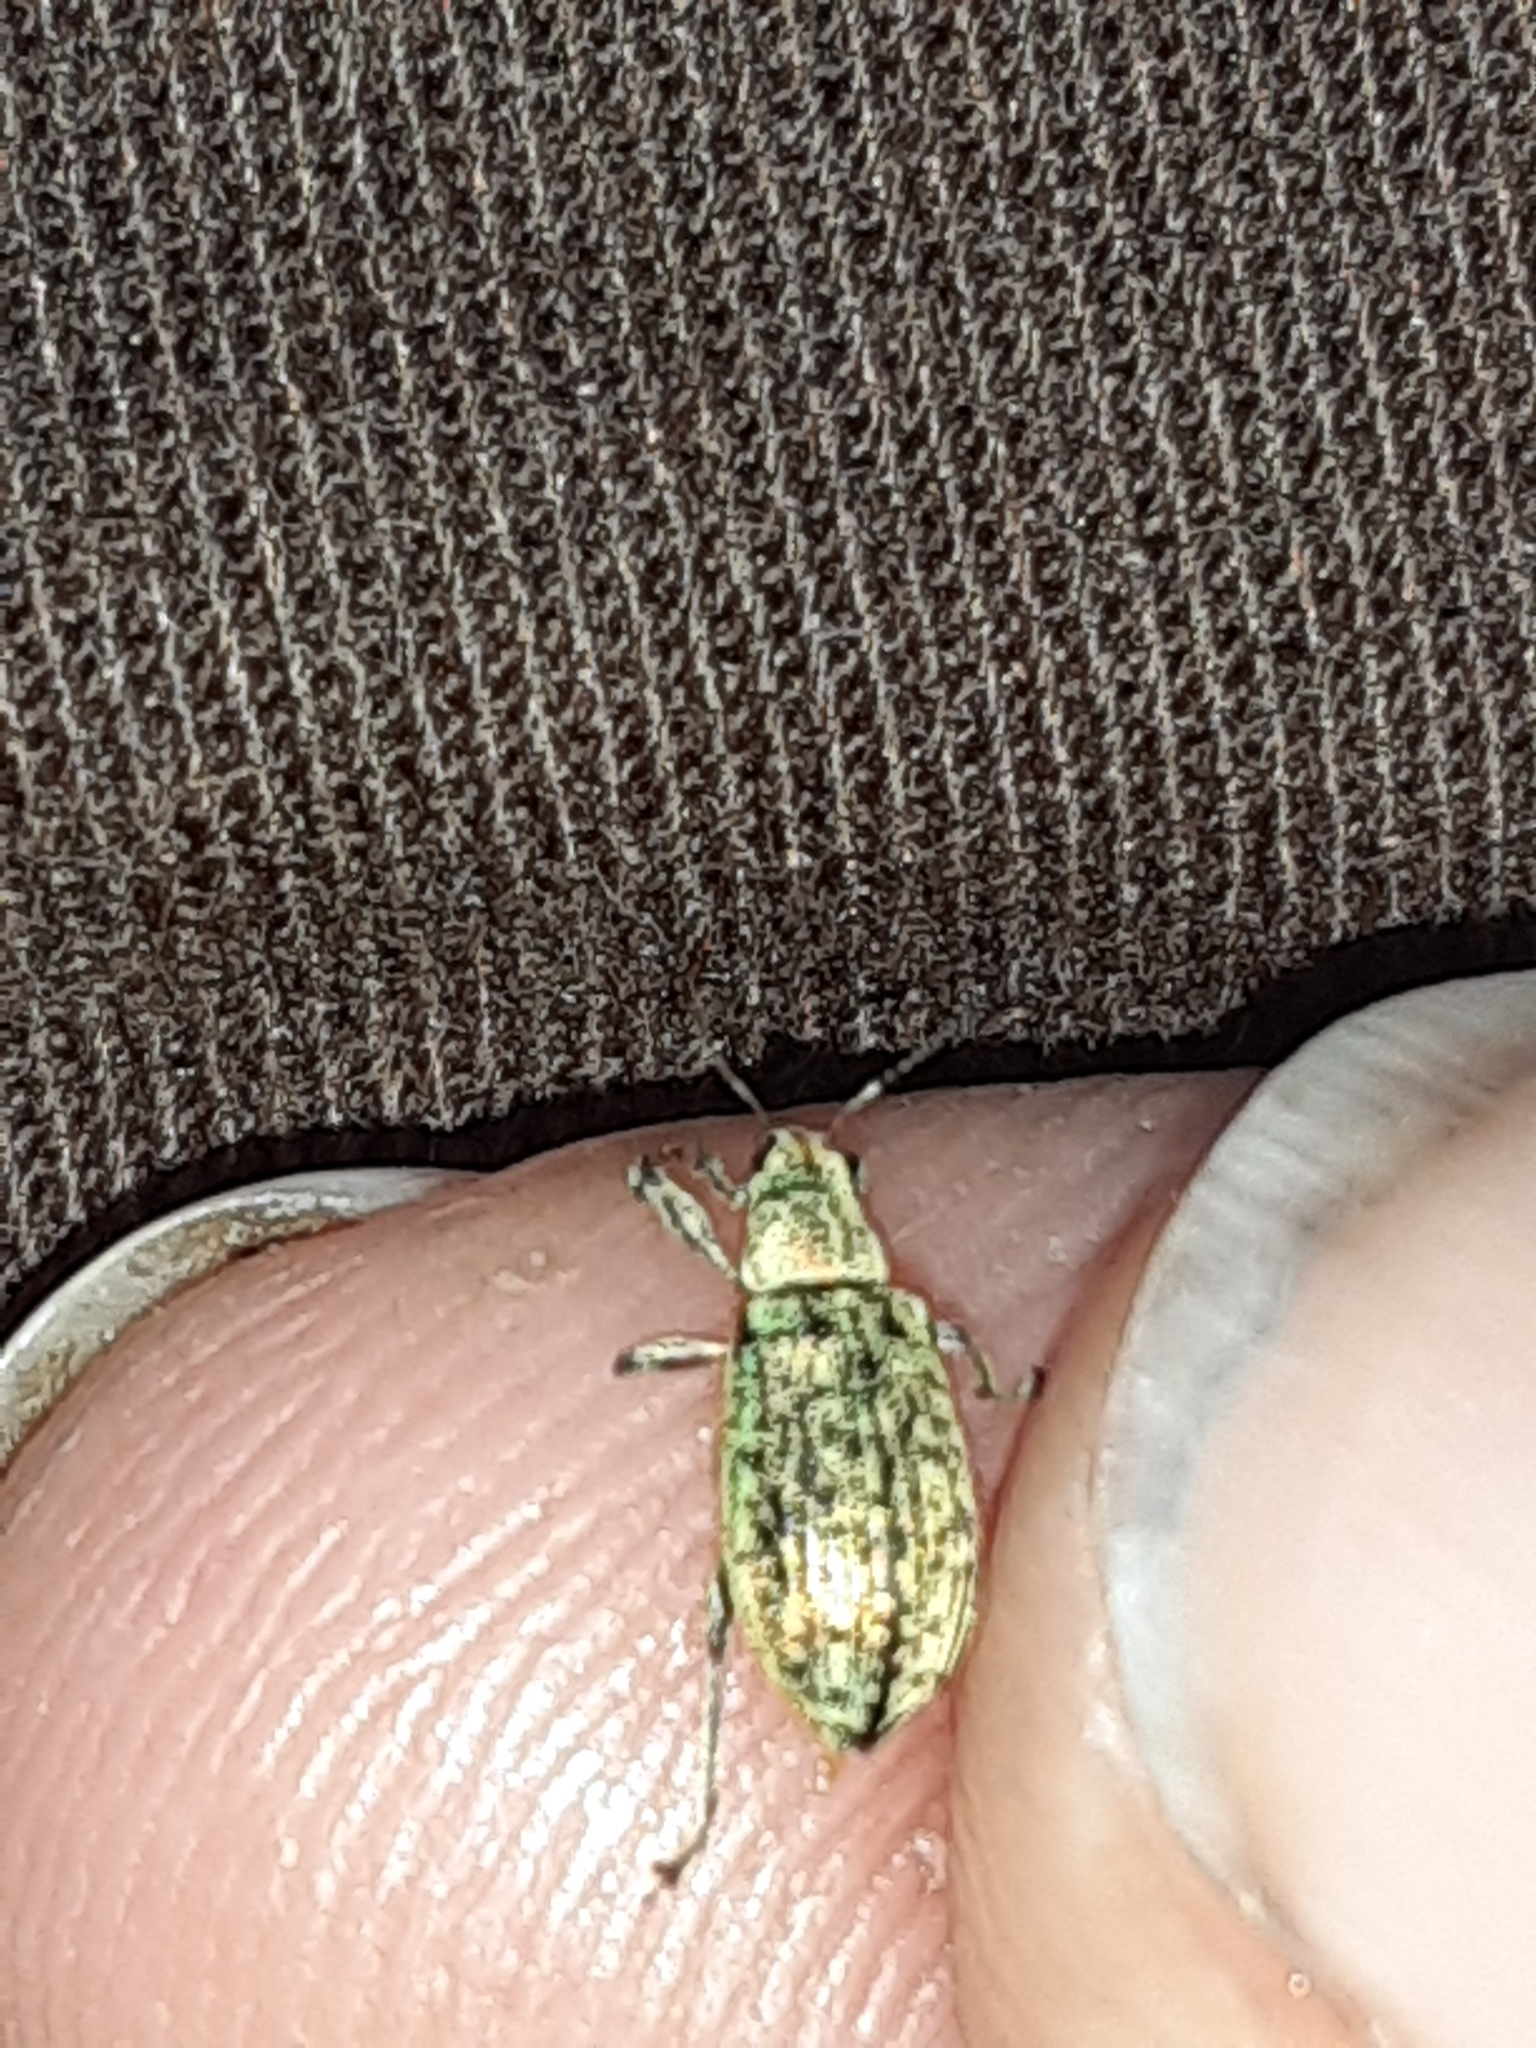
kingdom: Animalia
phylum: Arthropoda
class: Insecta
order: Coleoptera
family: Curculionidae
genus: Polydrusus
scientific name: Polydrusus cervinus
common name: Weevil
